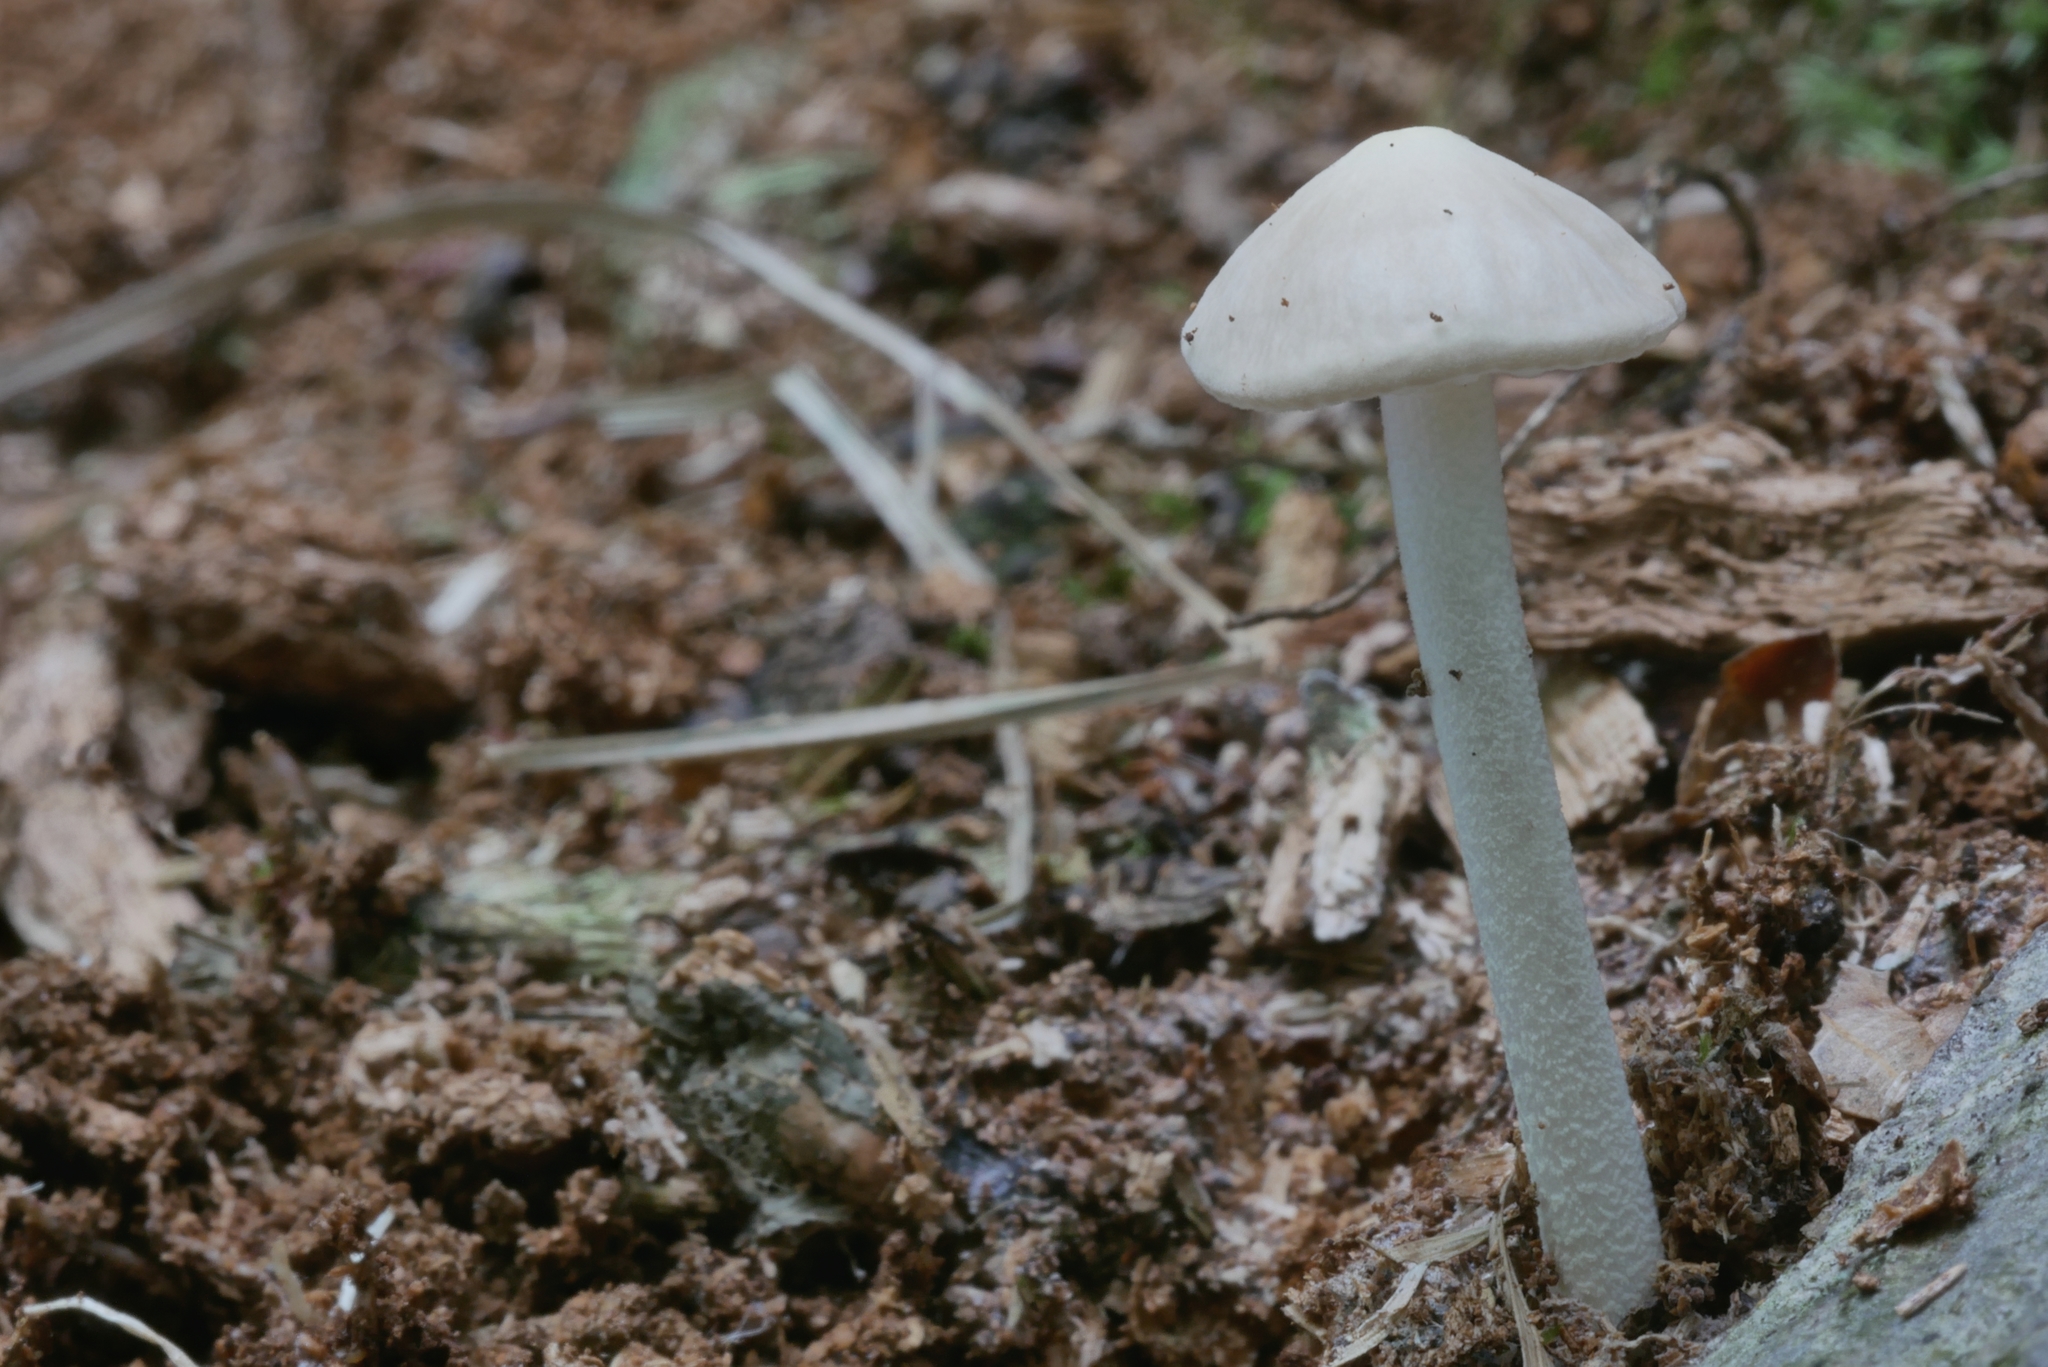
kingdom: Fungi
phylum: Basidiomycota
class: Agaricomycetes
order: Agaricales
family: Physalacriaceae
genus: Hymenopellis
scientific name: Hymenopellis furfuracea
